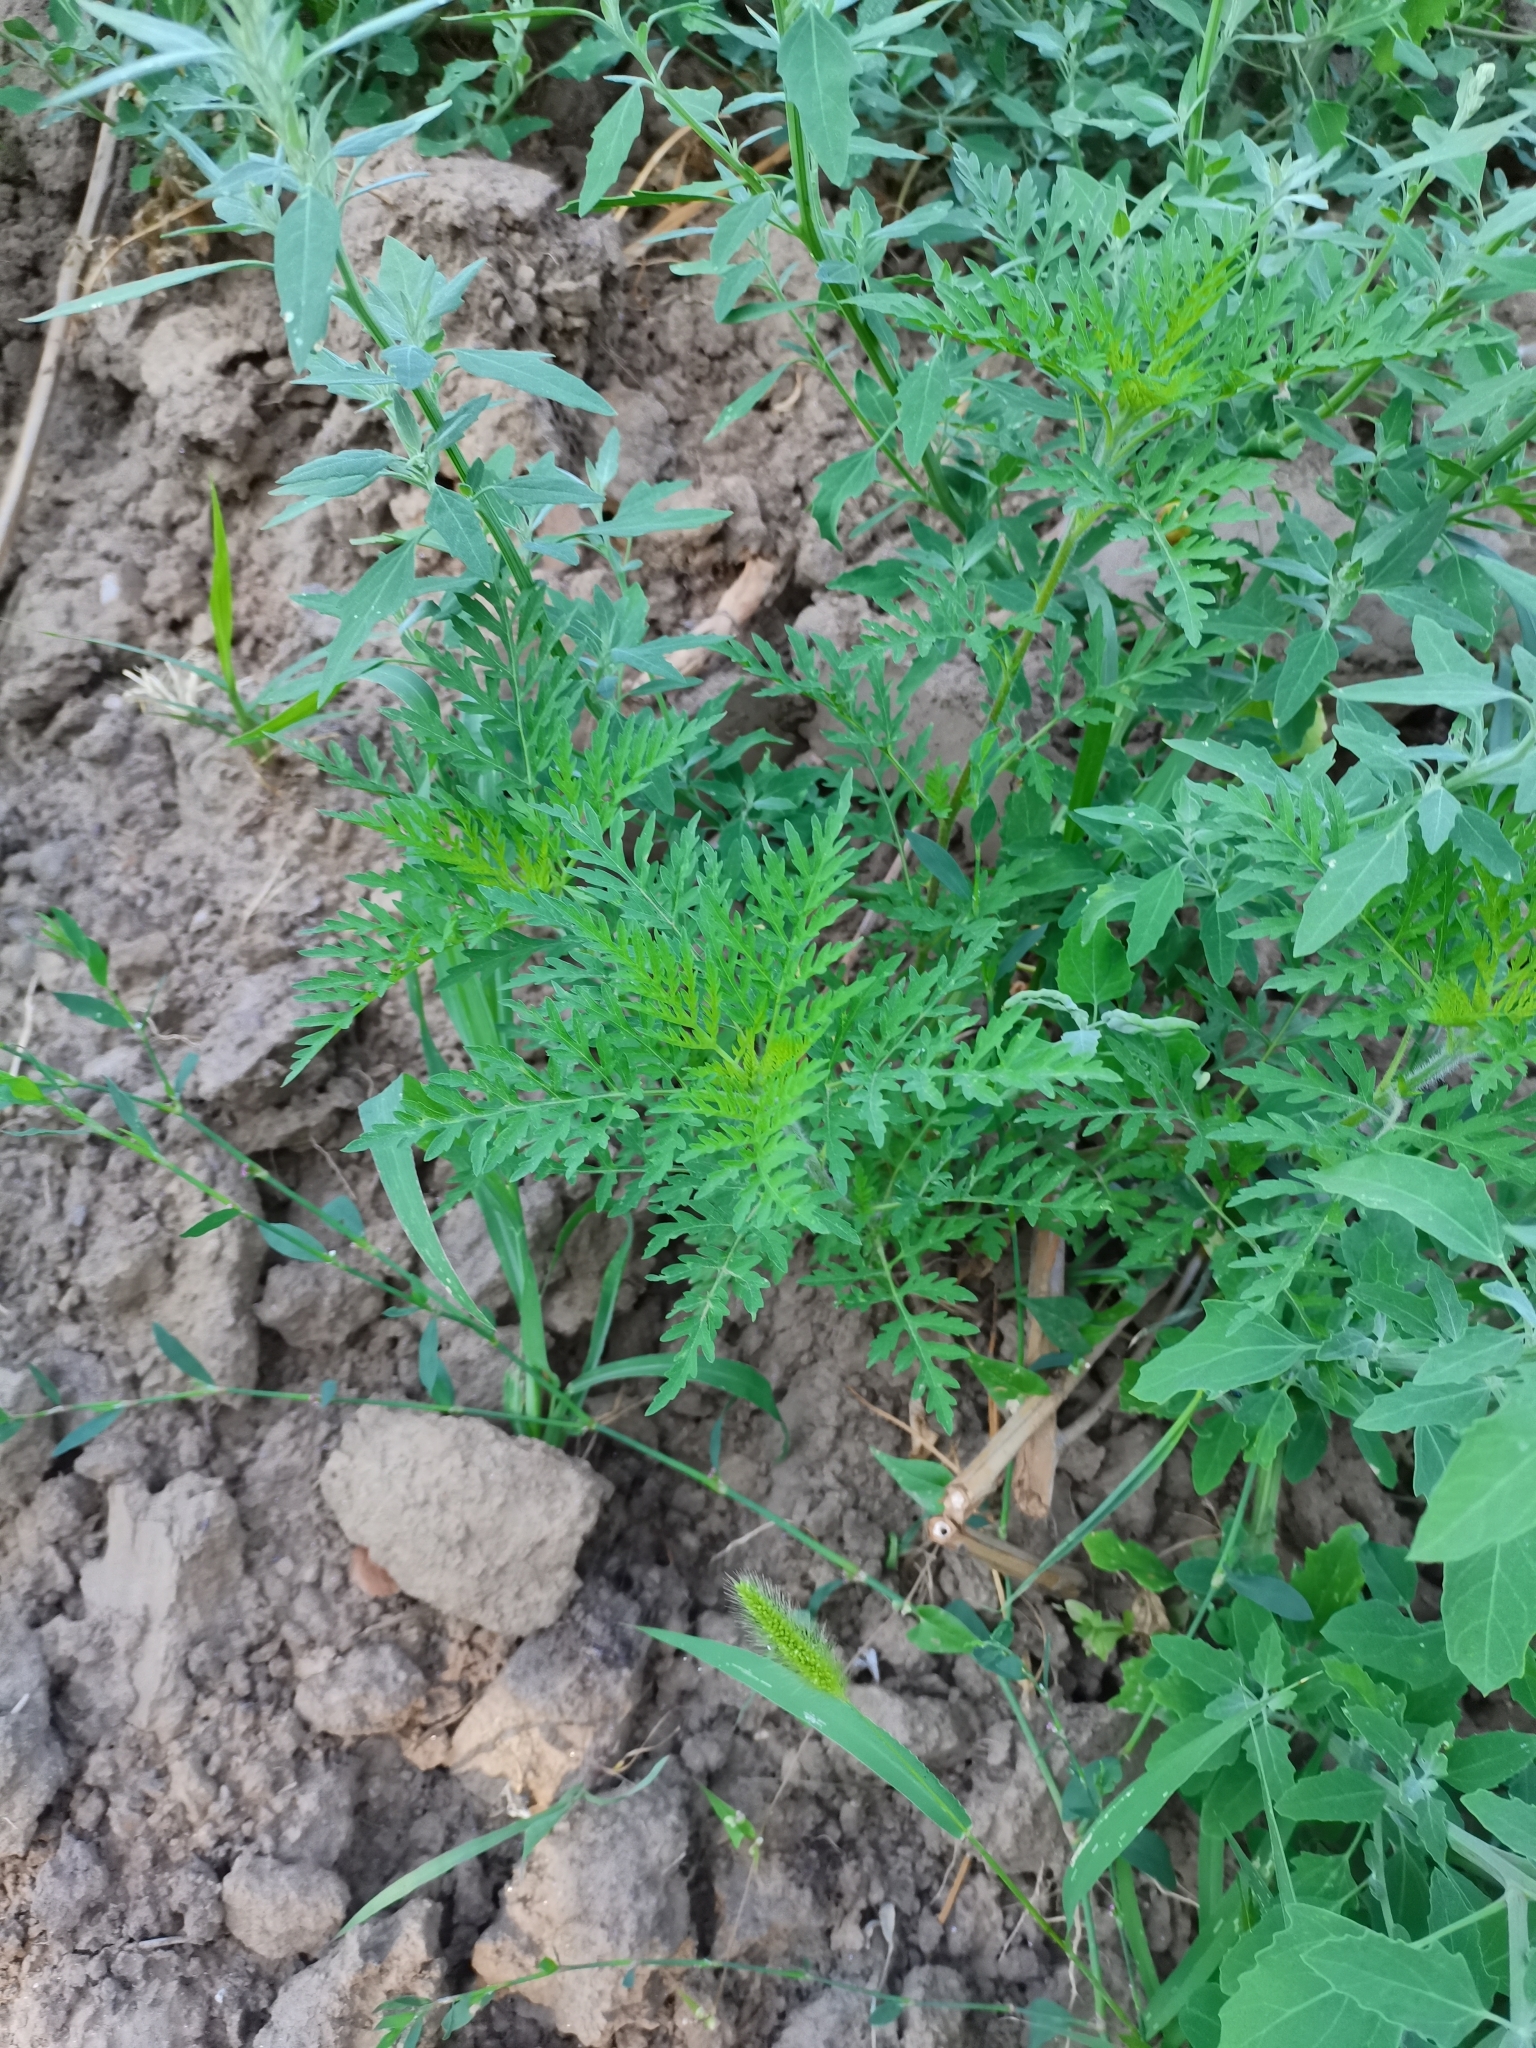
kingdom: Plantae
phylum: Tracheophyta
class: Magnoliopsida
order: Asterales
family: Asteraceae
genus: Ambrosia
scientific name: Ambrosia artemisiifolia
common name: Annual ragweed
